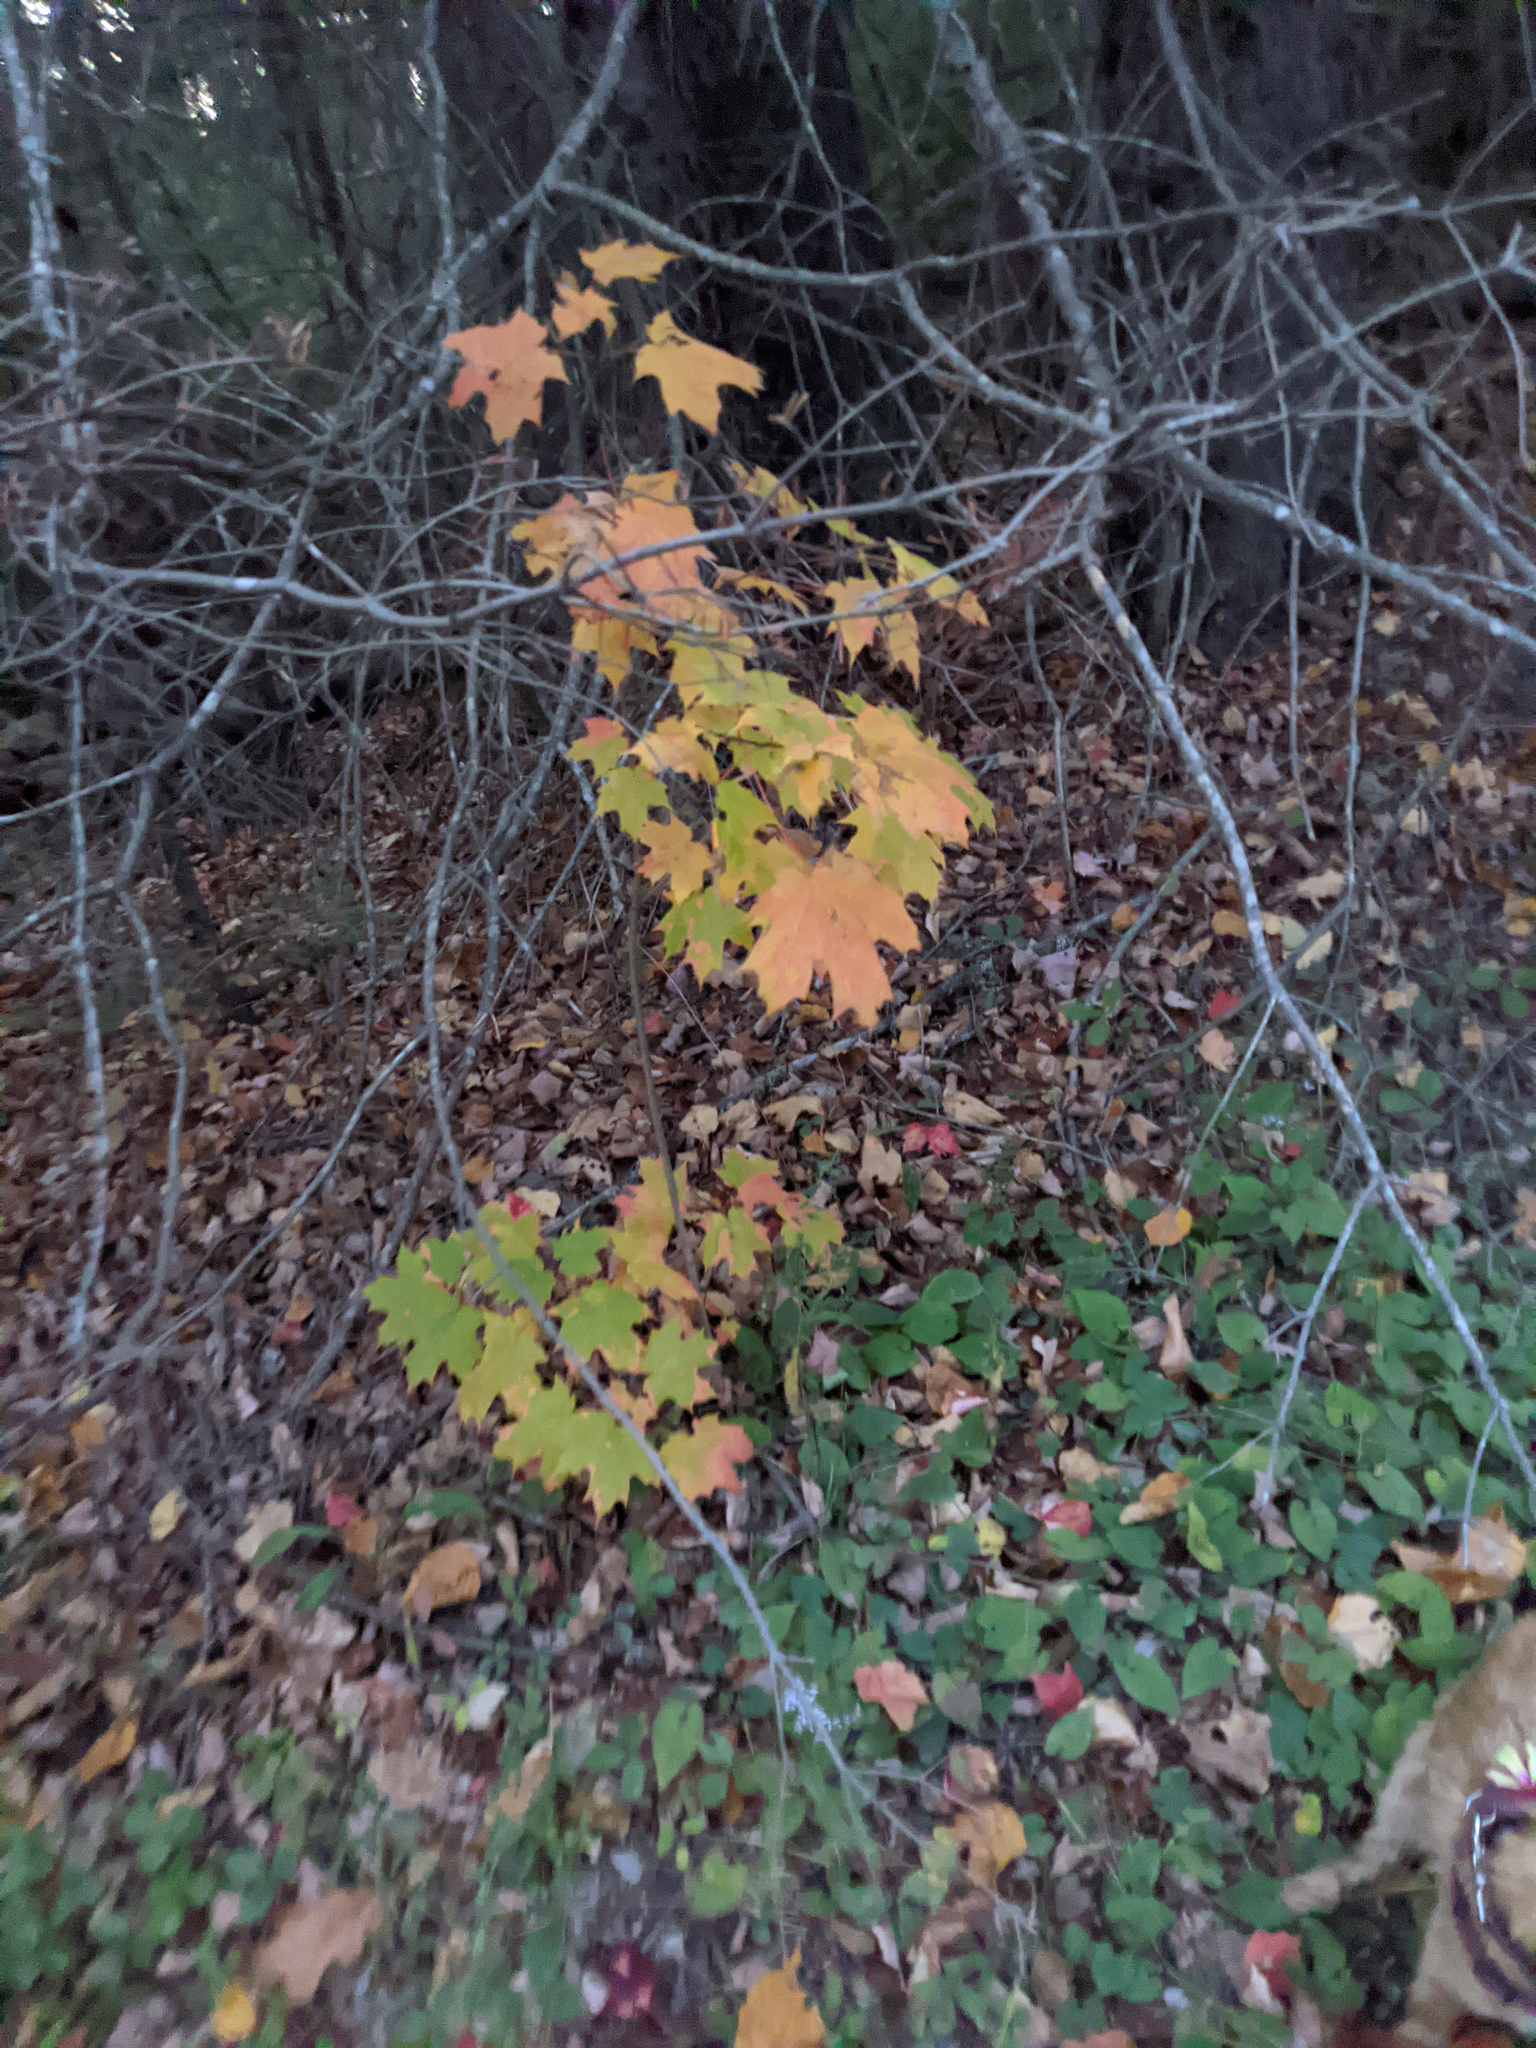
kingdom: Plantae
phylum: Tracheophyta
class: Magnoliopsida
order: Sapindales
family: Sapindaceae
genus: Acer
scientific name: Acer saccharum
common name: Sugar maple
